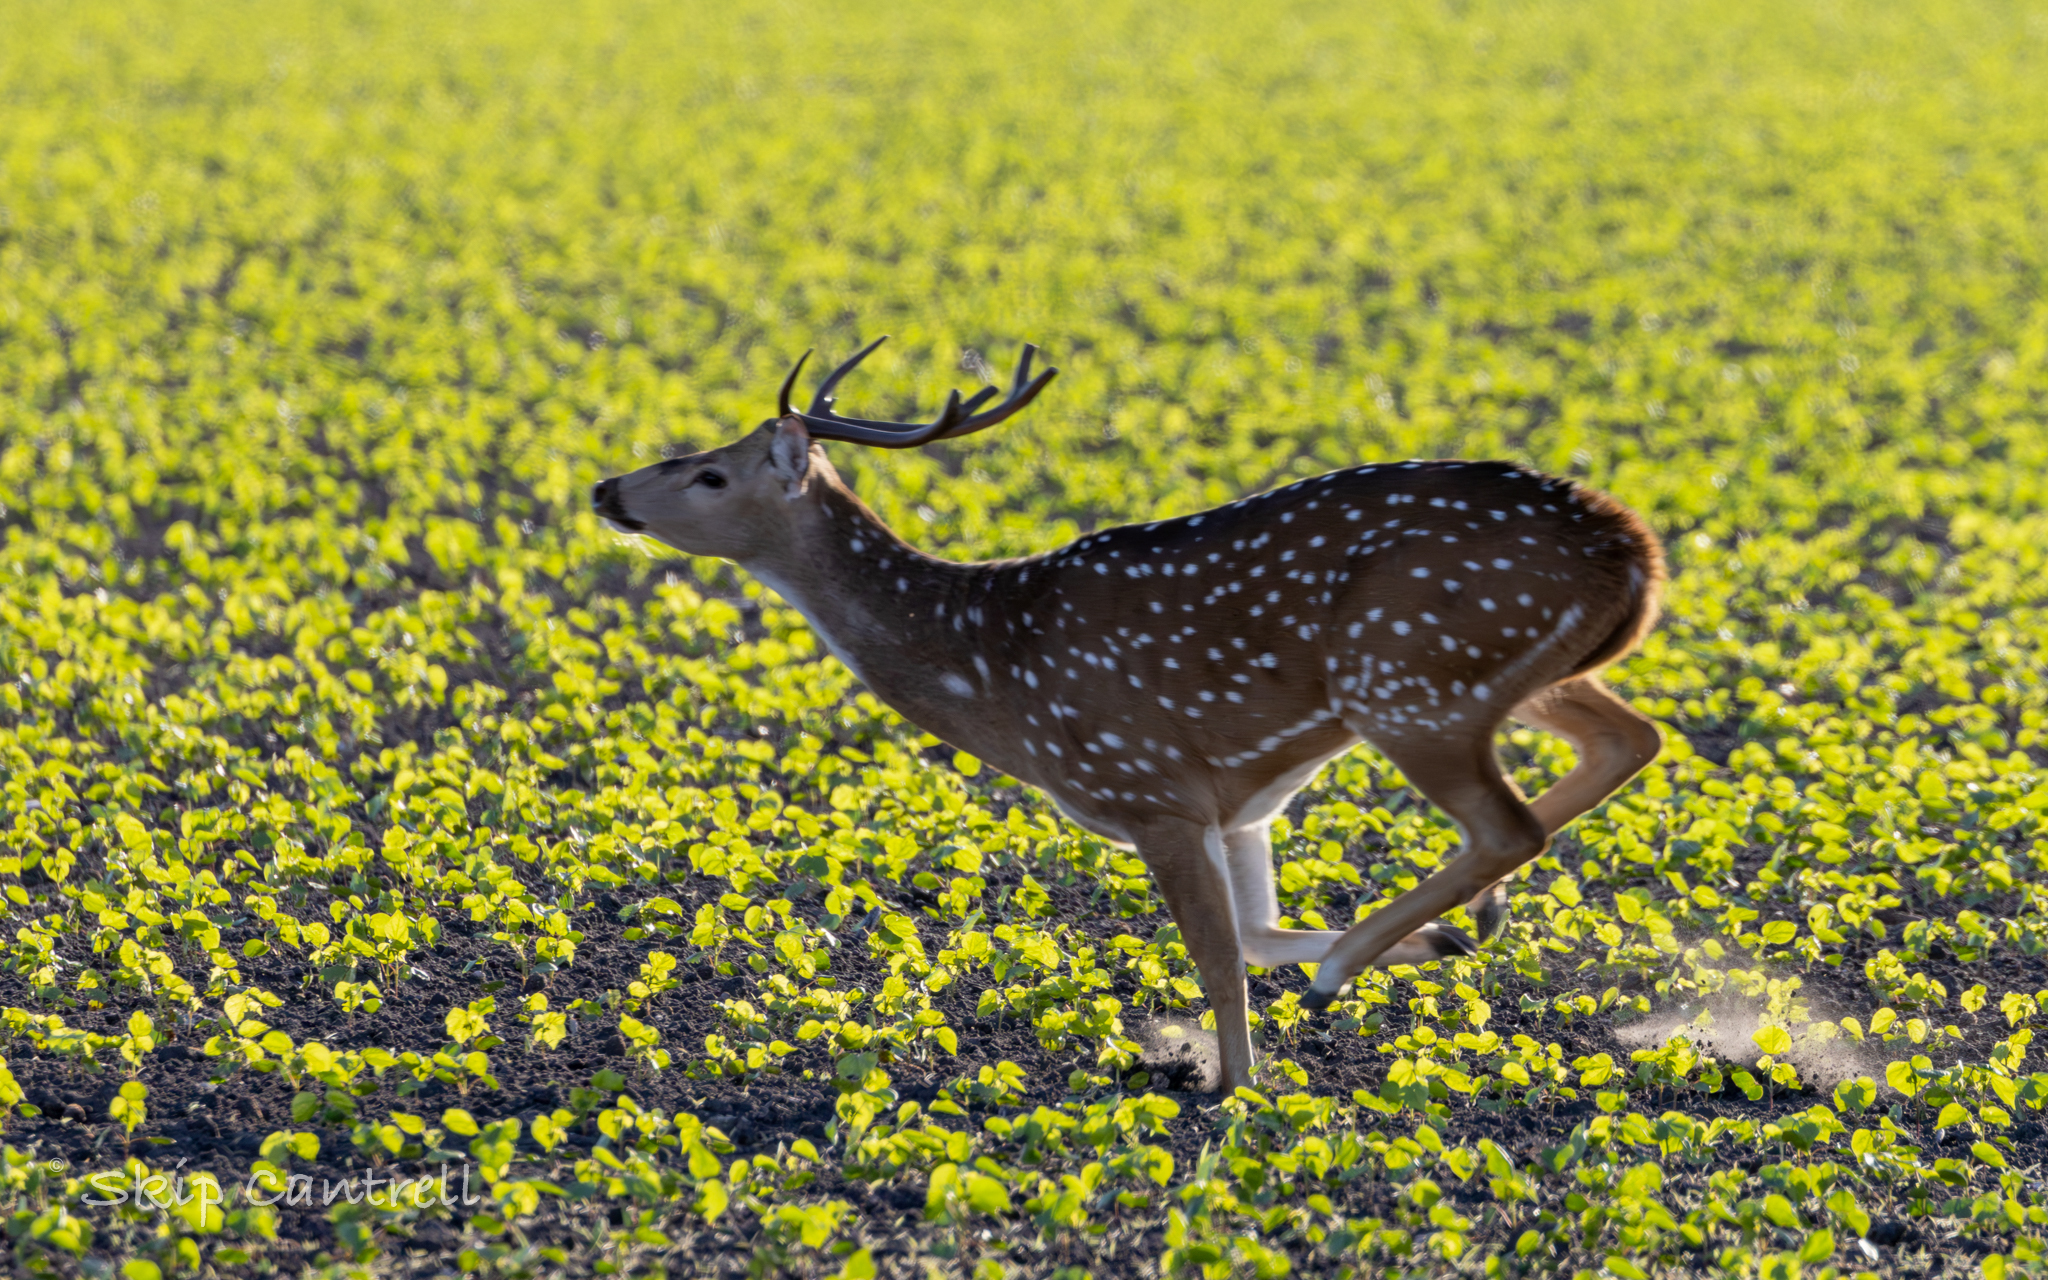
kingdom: Animalia
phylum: Chordata
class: Mammalia
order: Artiodactyla
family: Cervidae
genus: Axis
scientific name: Axis axis
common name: Chital
